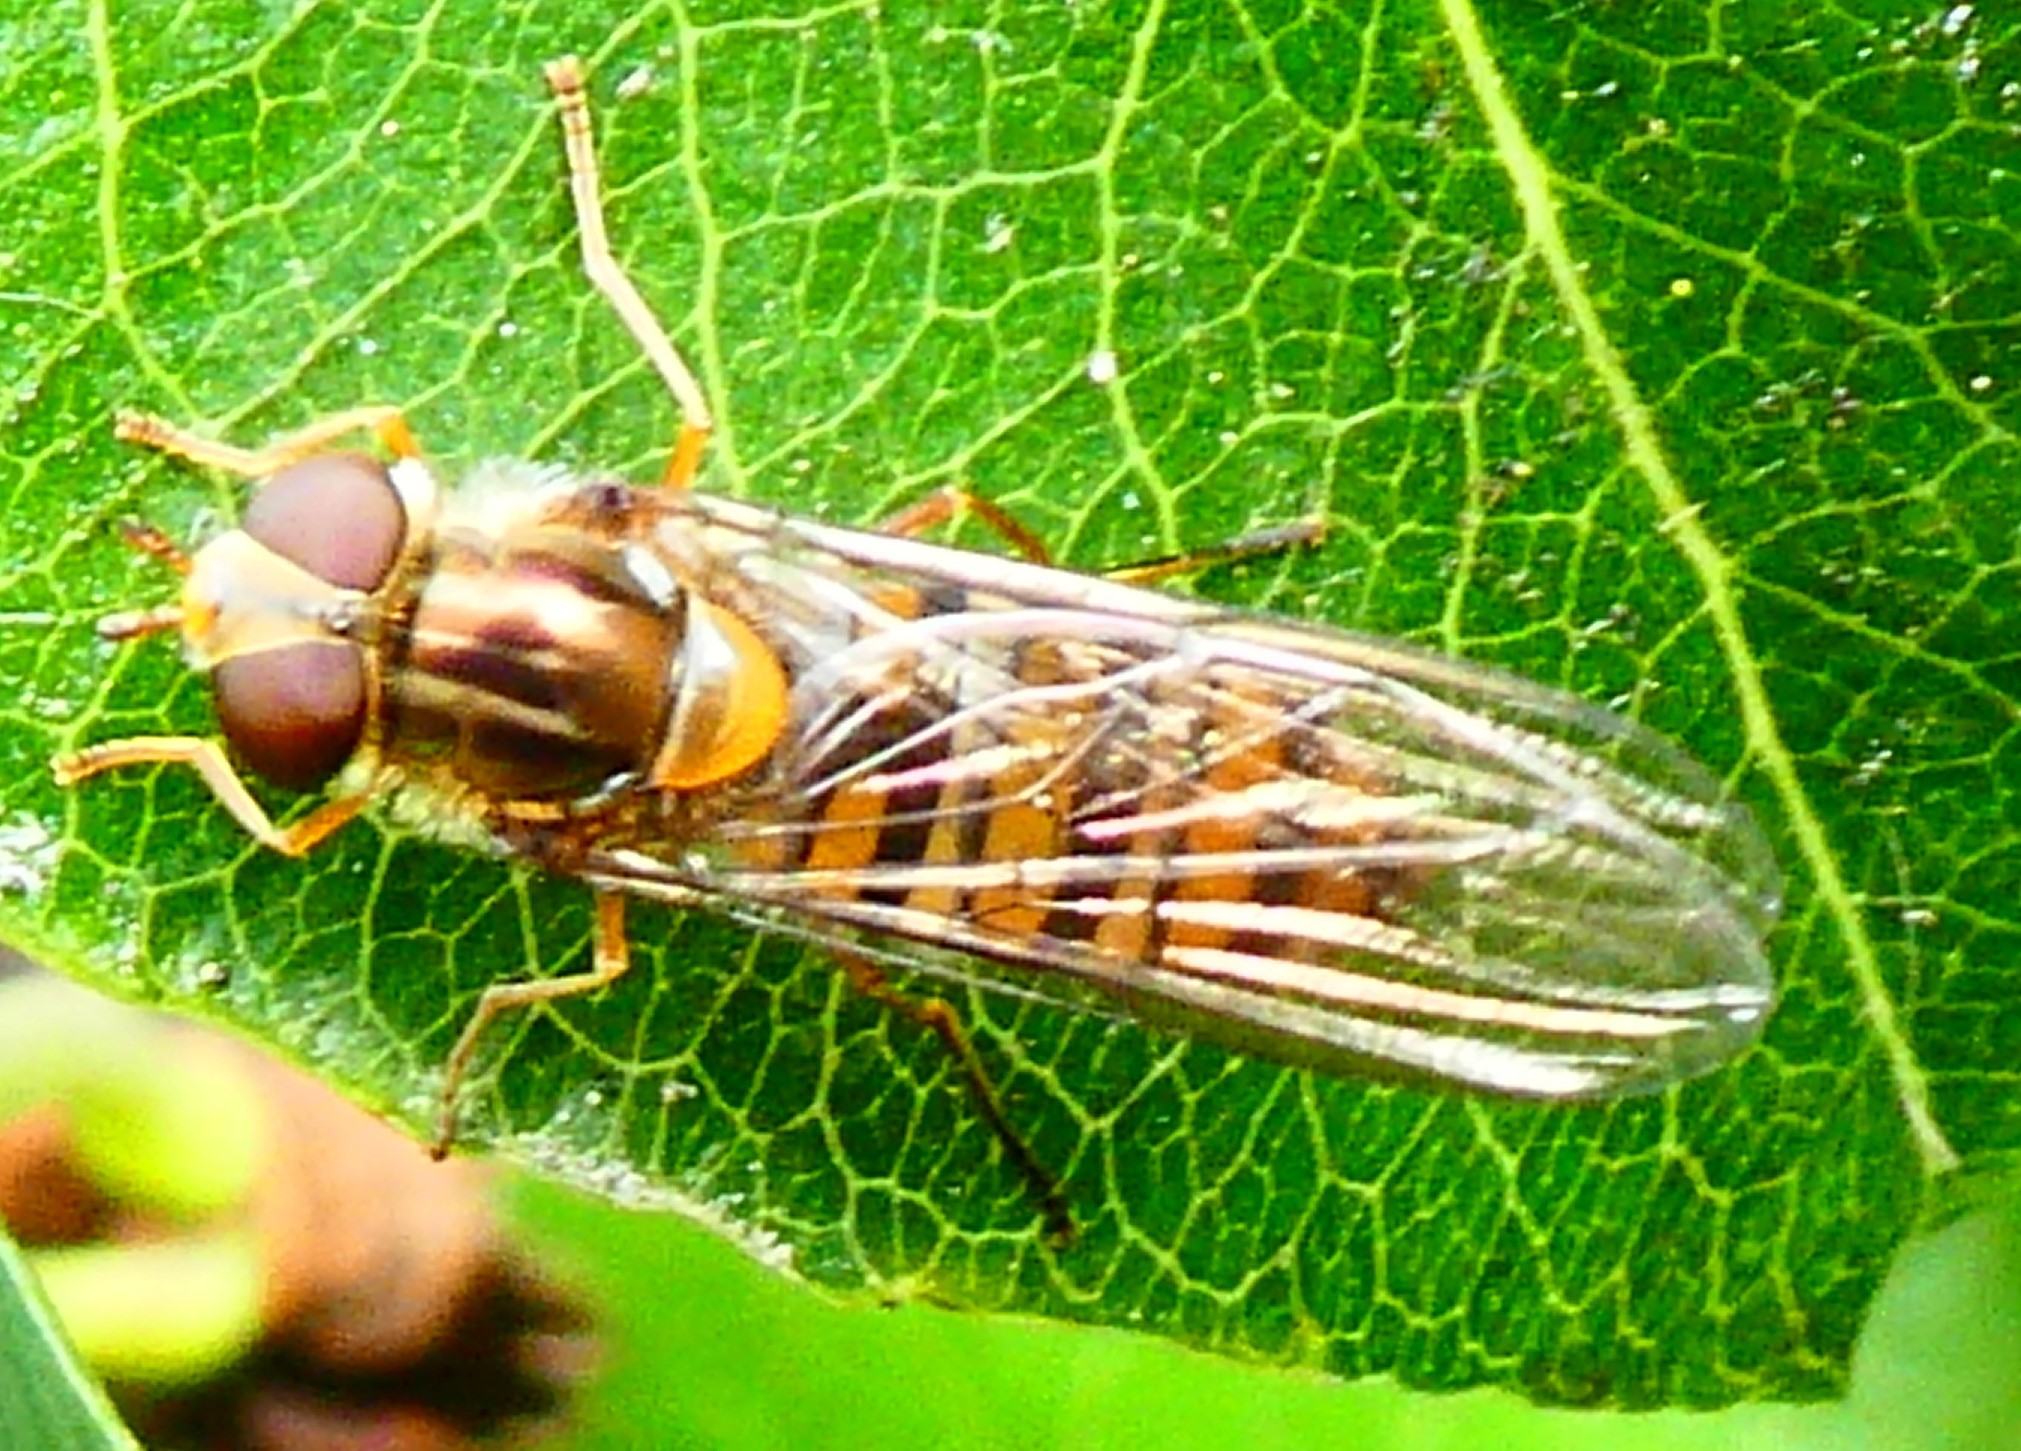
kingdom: Animalia
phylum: Arthropoda
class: Insecta
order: Diptera
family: Syrphidae
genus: Episyrphus
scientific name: Episyrphus balteatus
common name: Marmalade hoverfly
